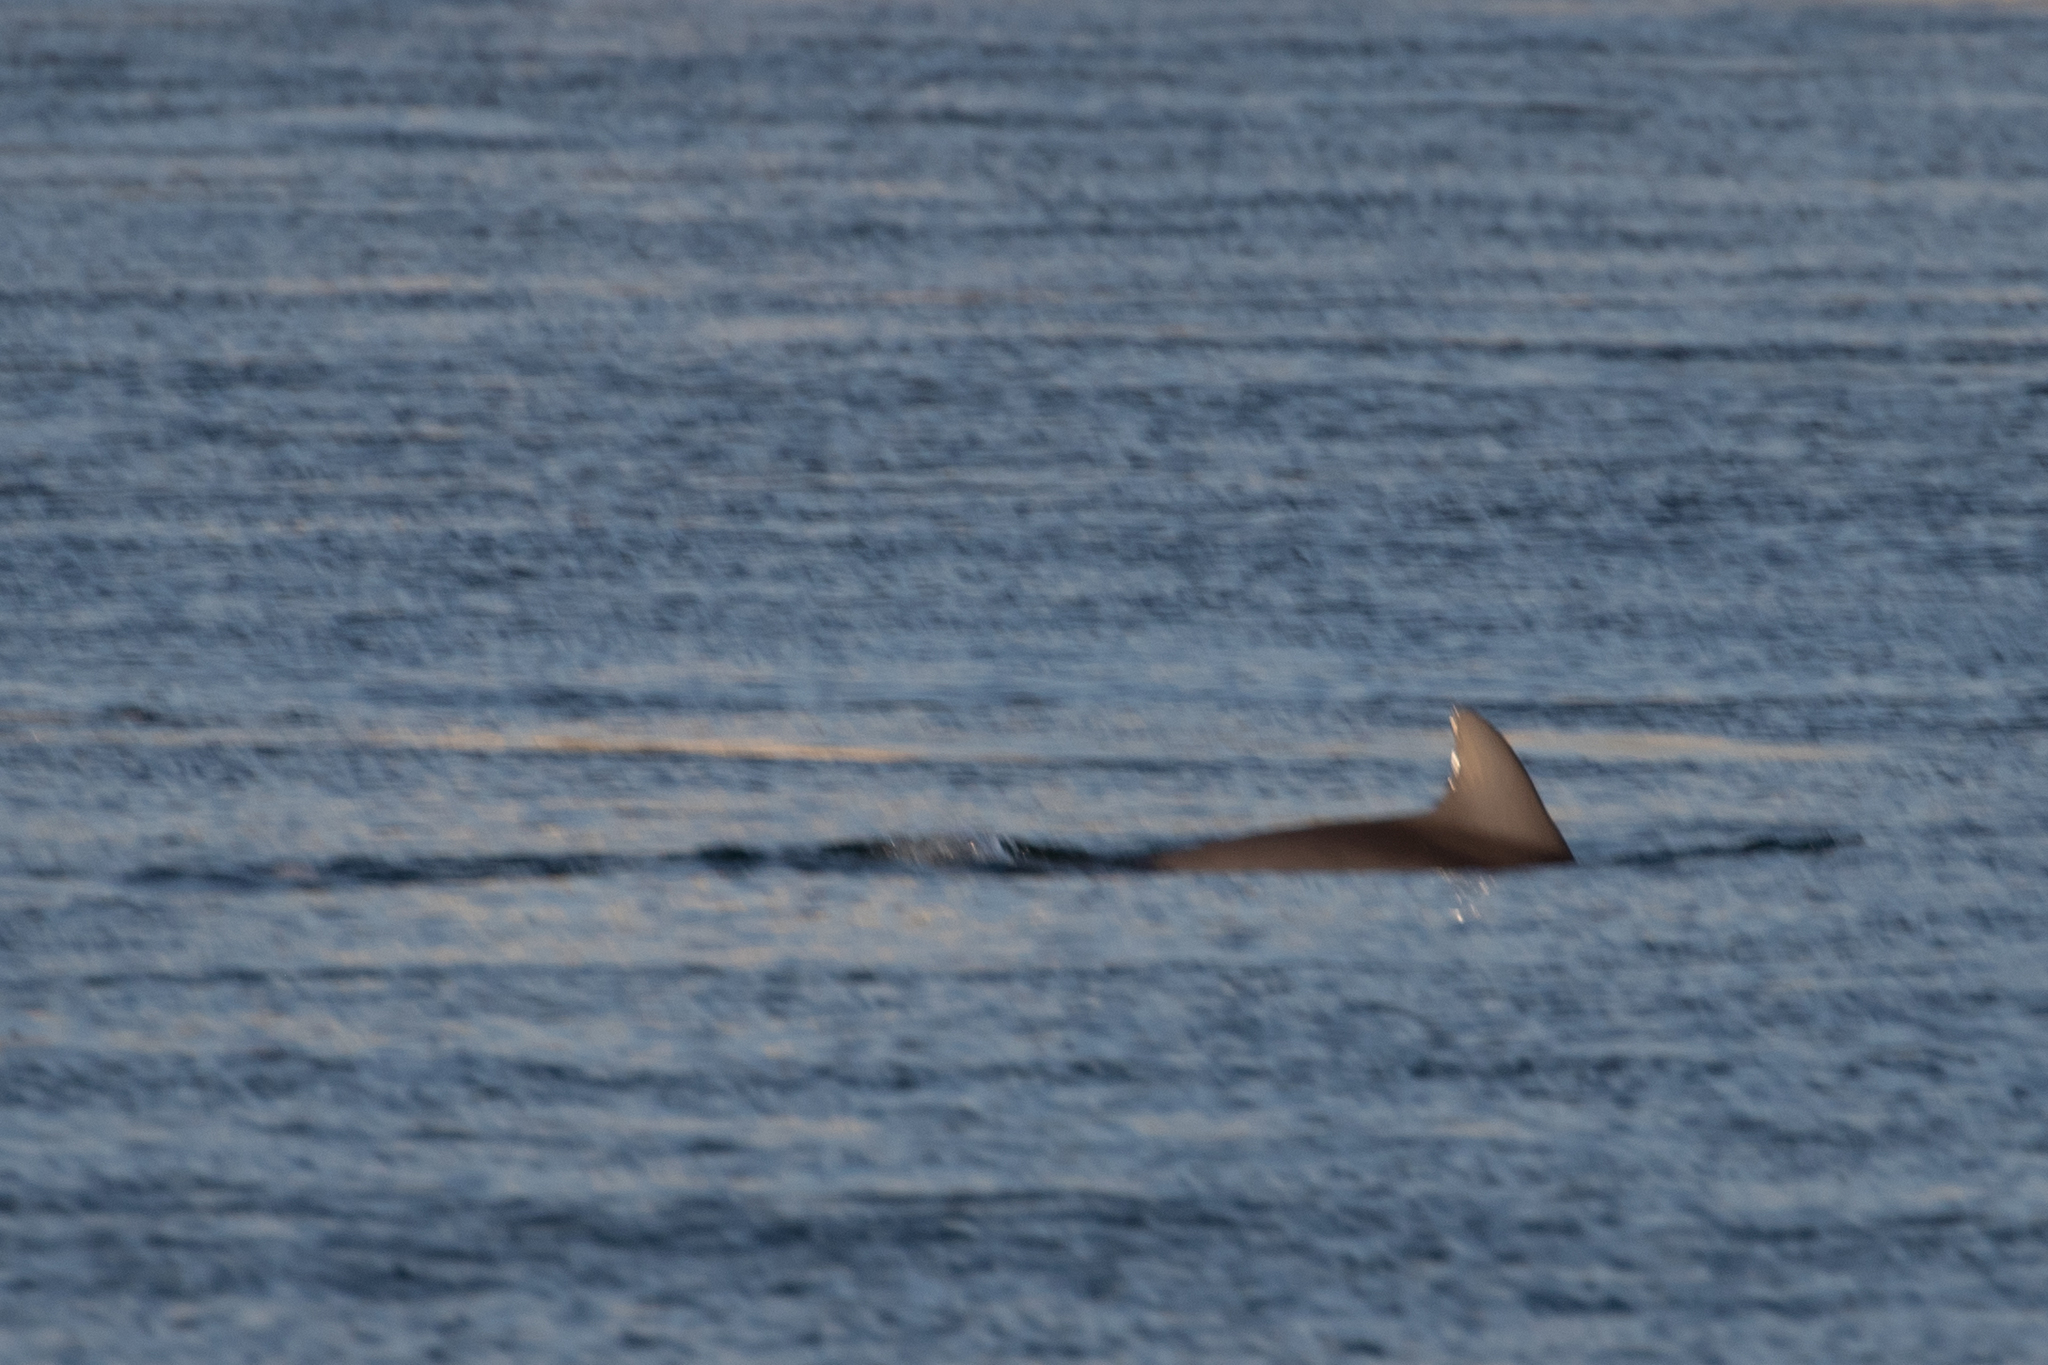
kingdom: Animalia
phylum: Chordata
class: Mammalia
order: Cetacea
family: Delphinidae
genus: Tursiops
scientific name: Tursiops truncatus
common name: Bottlenose dolphin
